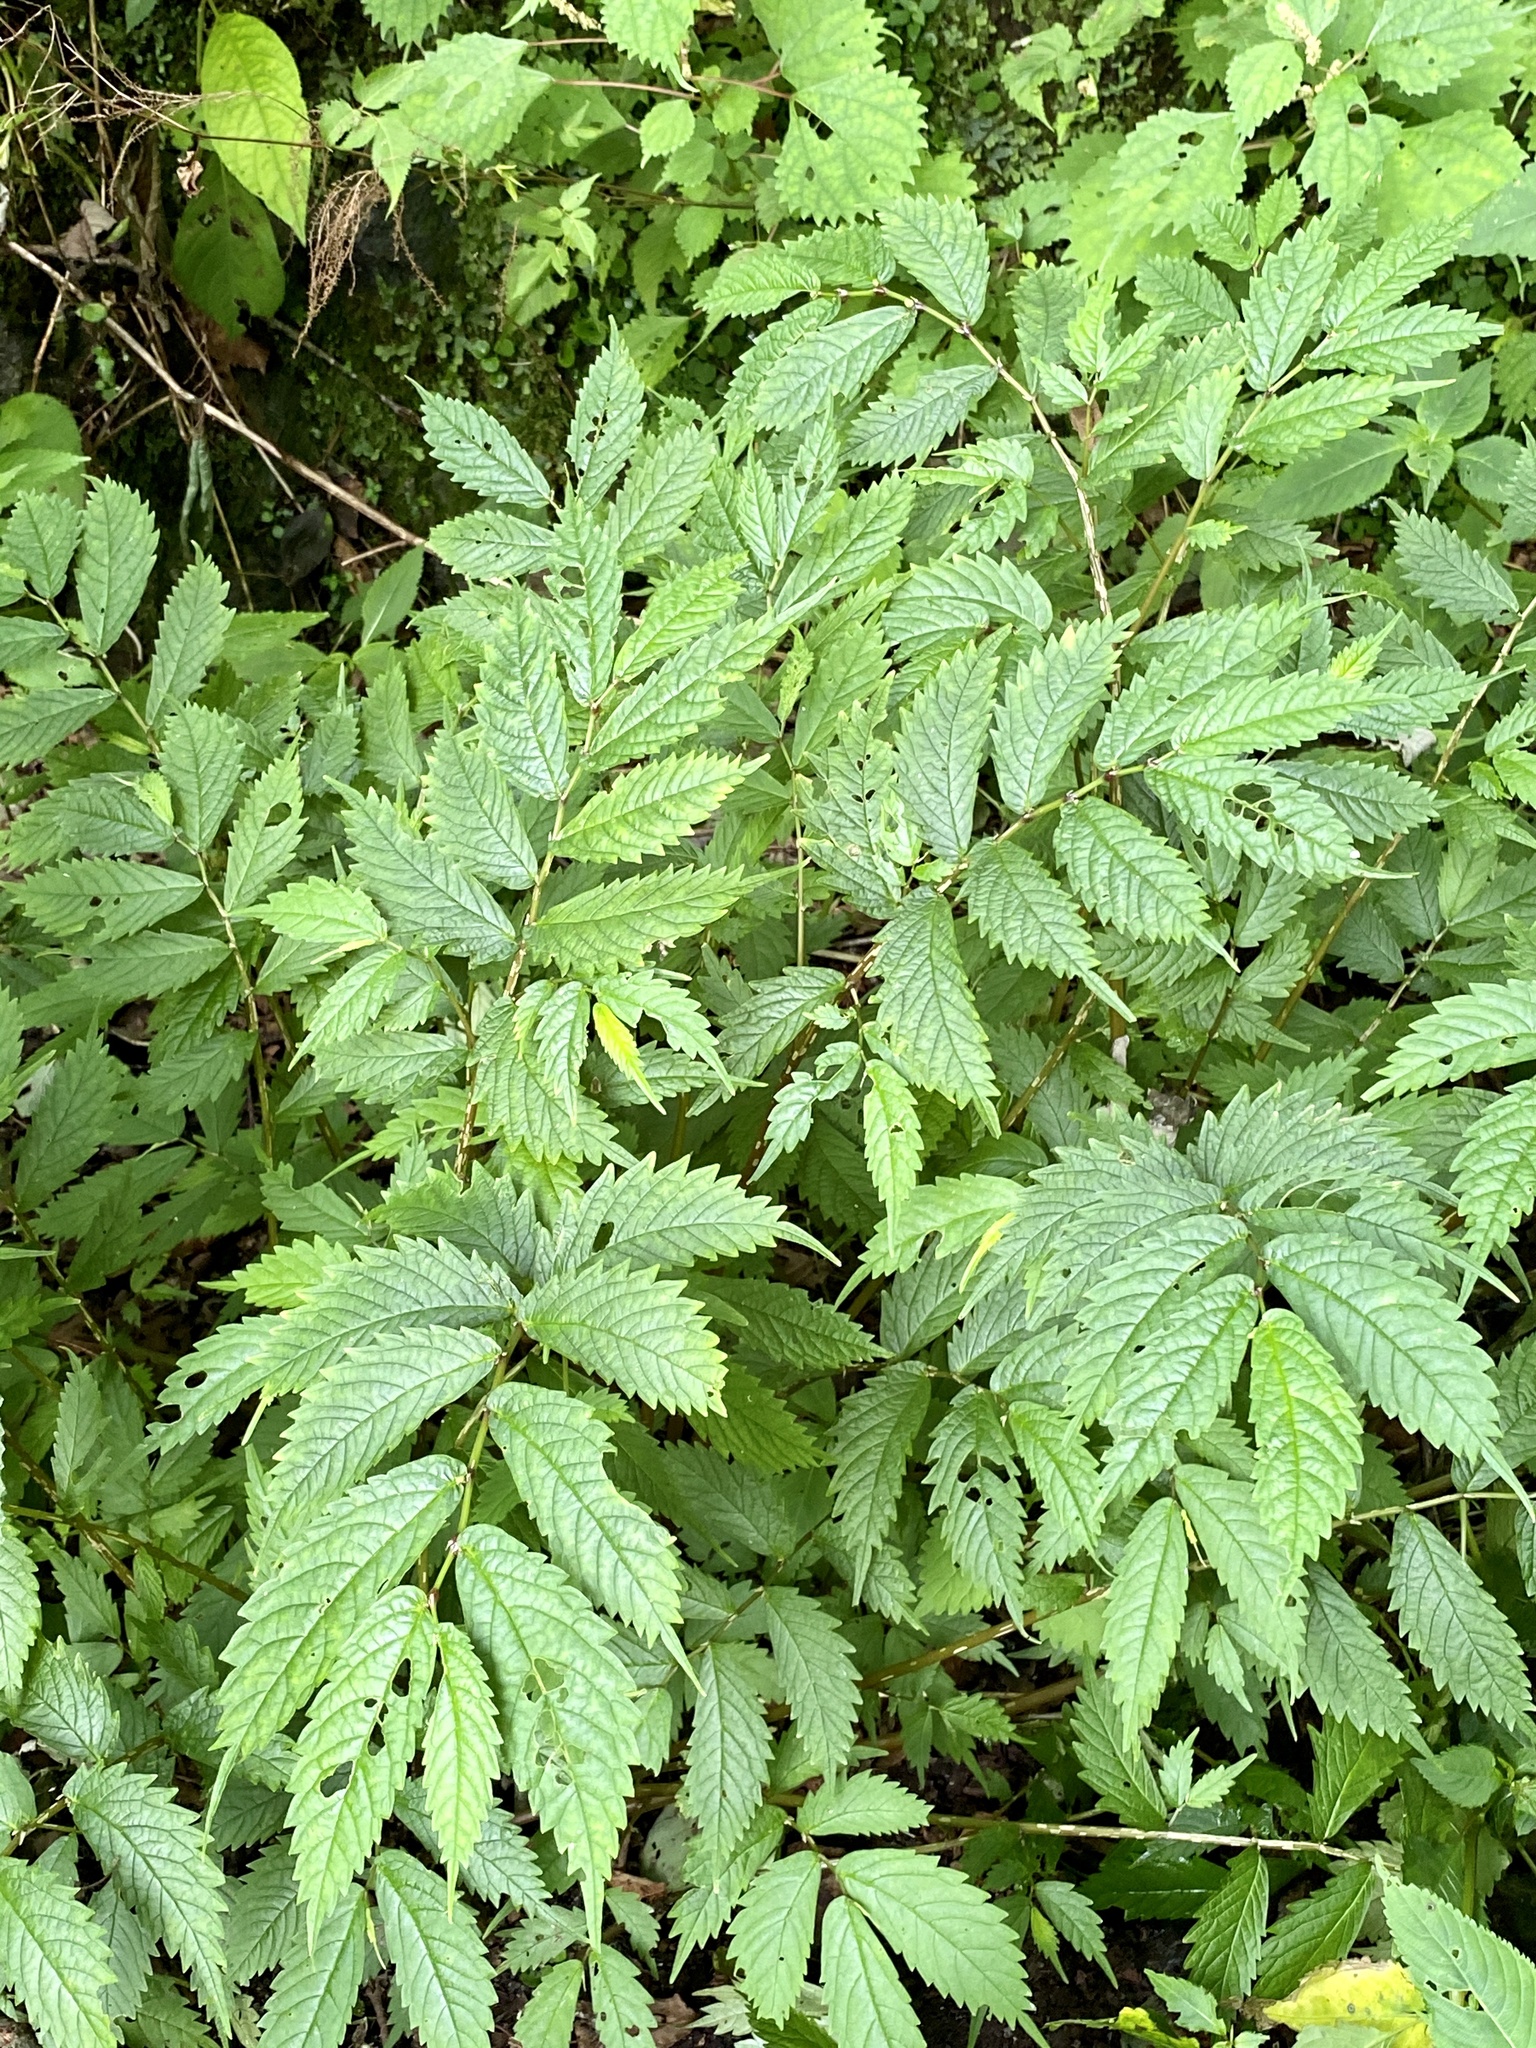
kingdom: Plantae
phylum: Tracheophyta
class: Magnoliopsida
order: Rosales
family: Urticaceae
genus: Elatostema
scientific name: Elatostema involucratum
